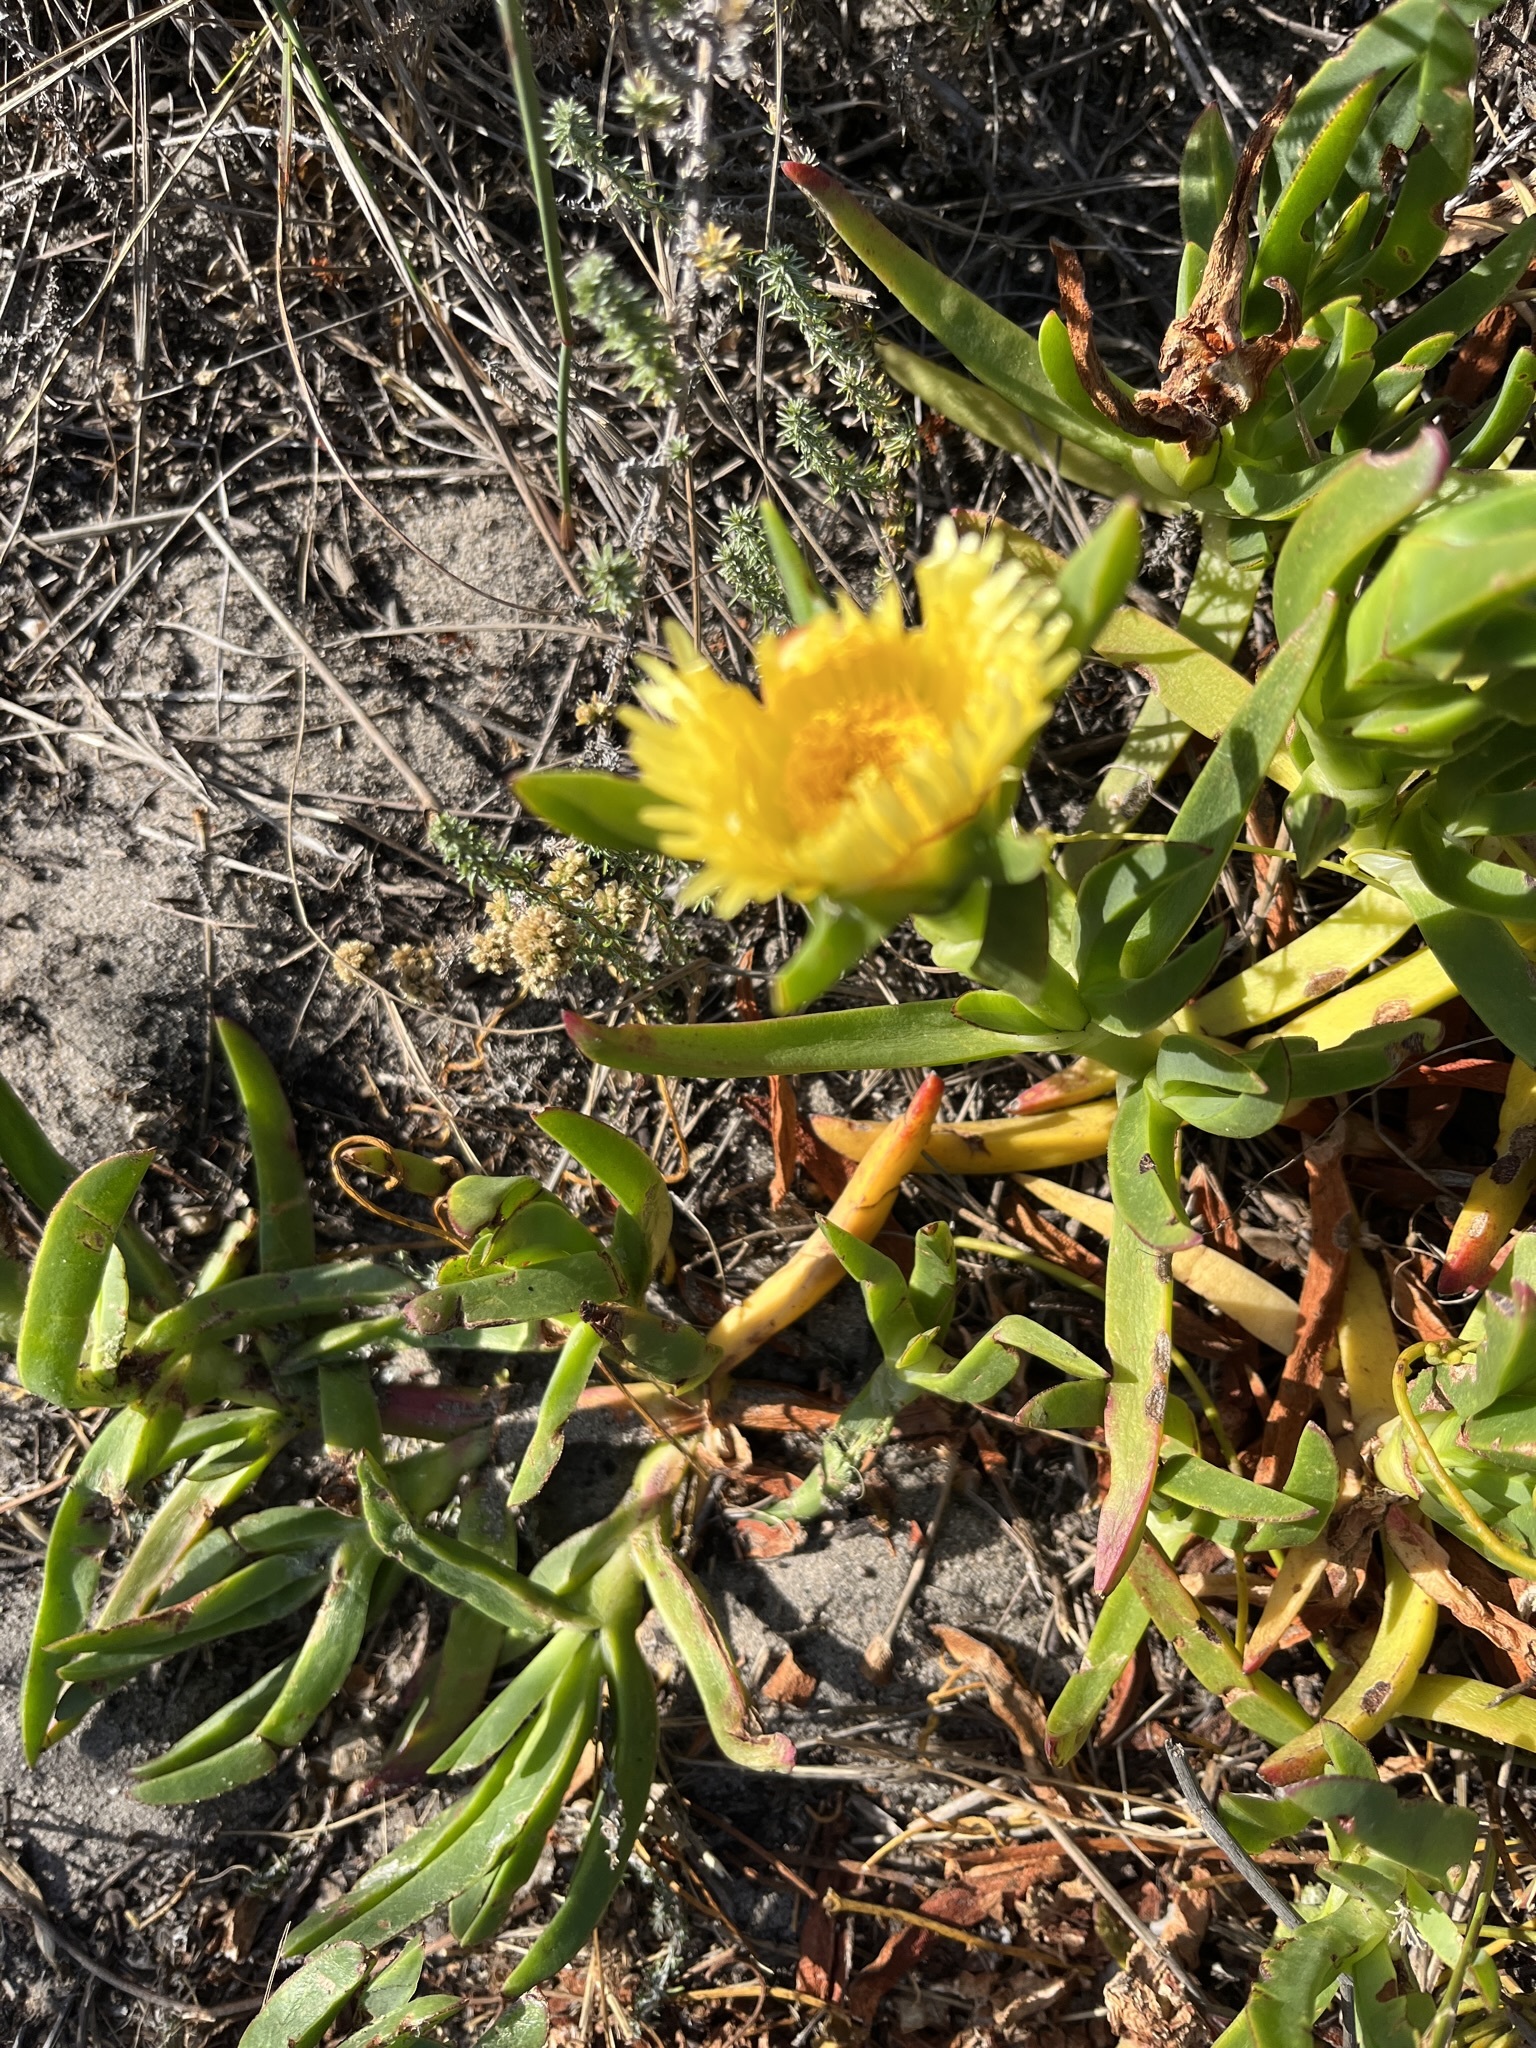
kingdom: Plantae
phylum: Tracheophyta
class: Magnoliopsida
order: Caryophyllales
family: Aizoaceae
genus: Carpobrotus
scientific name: Carpobrotus edulis
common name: Hottentot-fig
